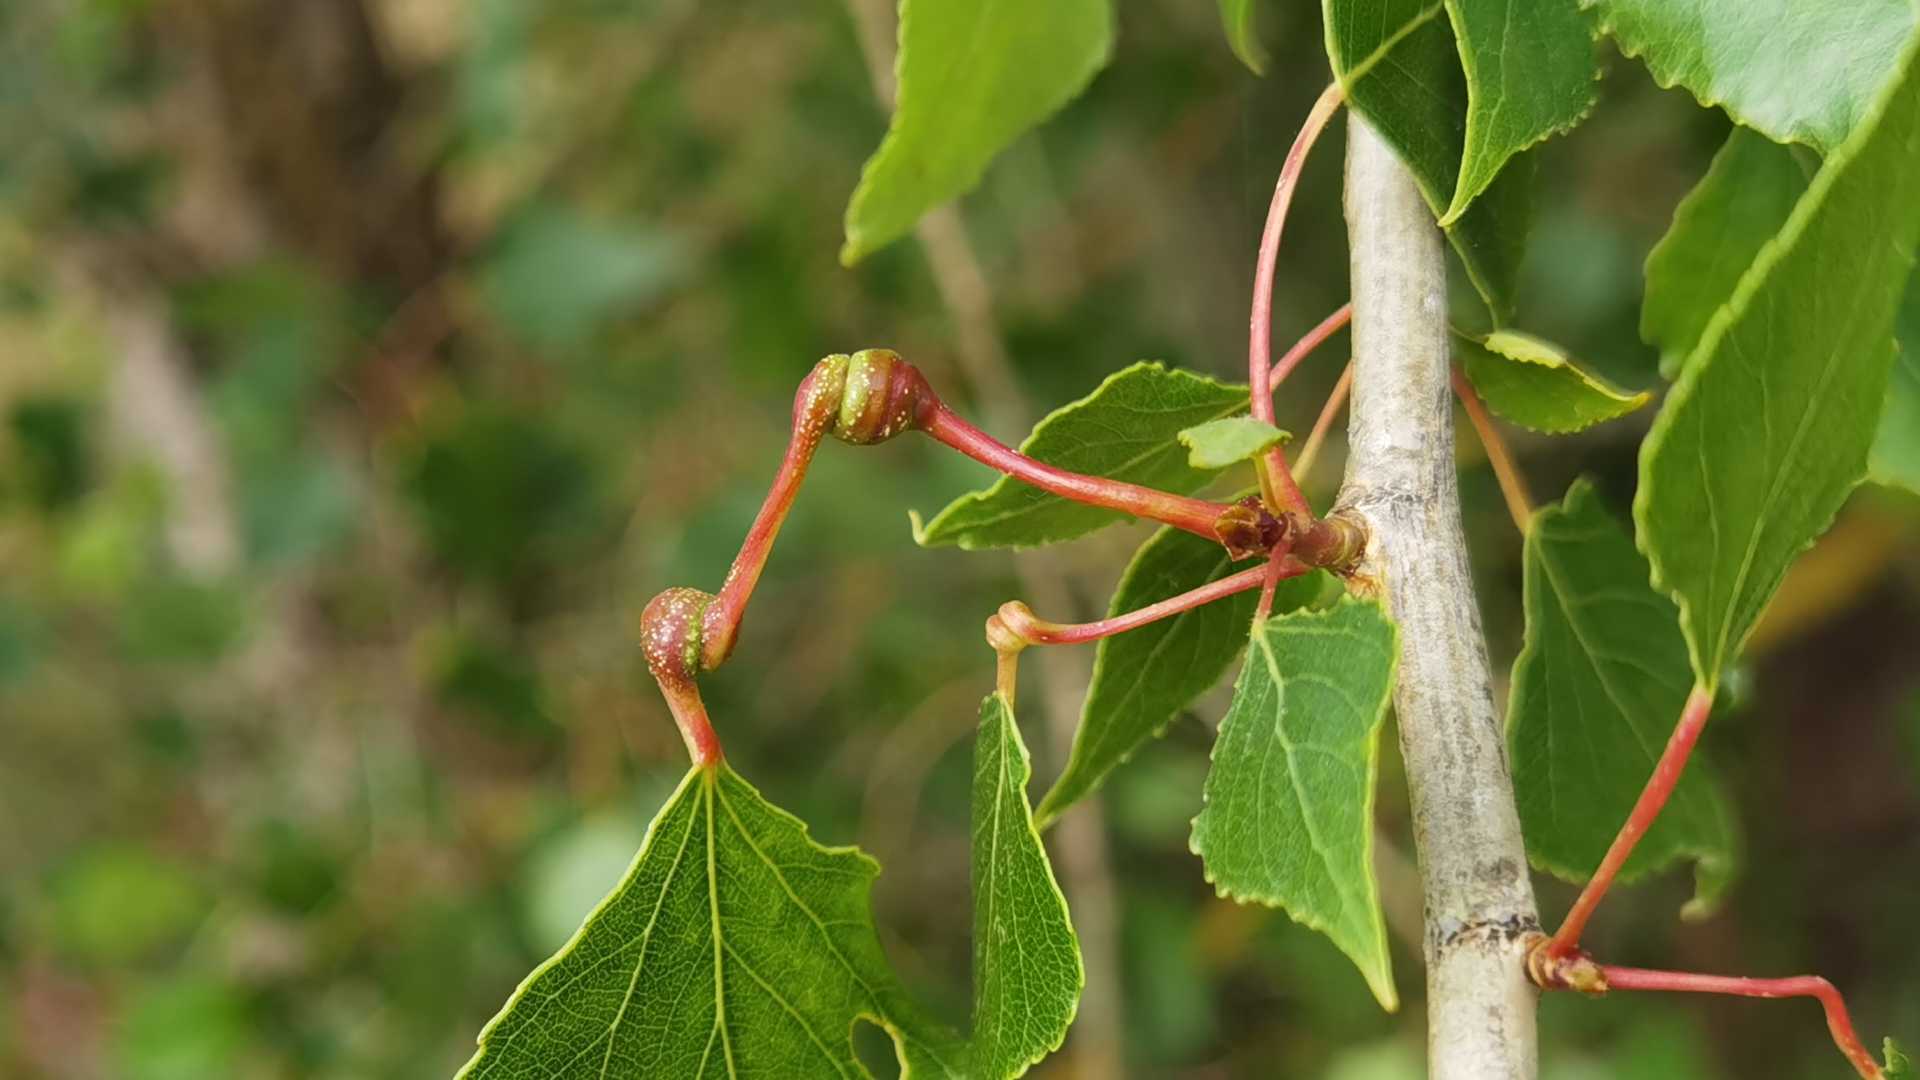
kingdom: Animalia
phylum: Arthropoda
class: Insecta
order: Hemiptera
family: Aphididae
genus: Pemphigus
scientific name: Pemphigus spyrothecae
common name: Aphid
